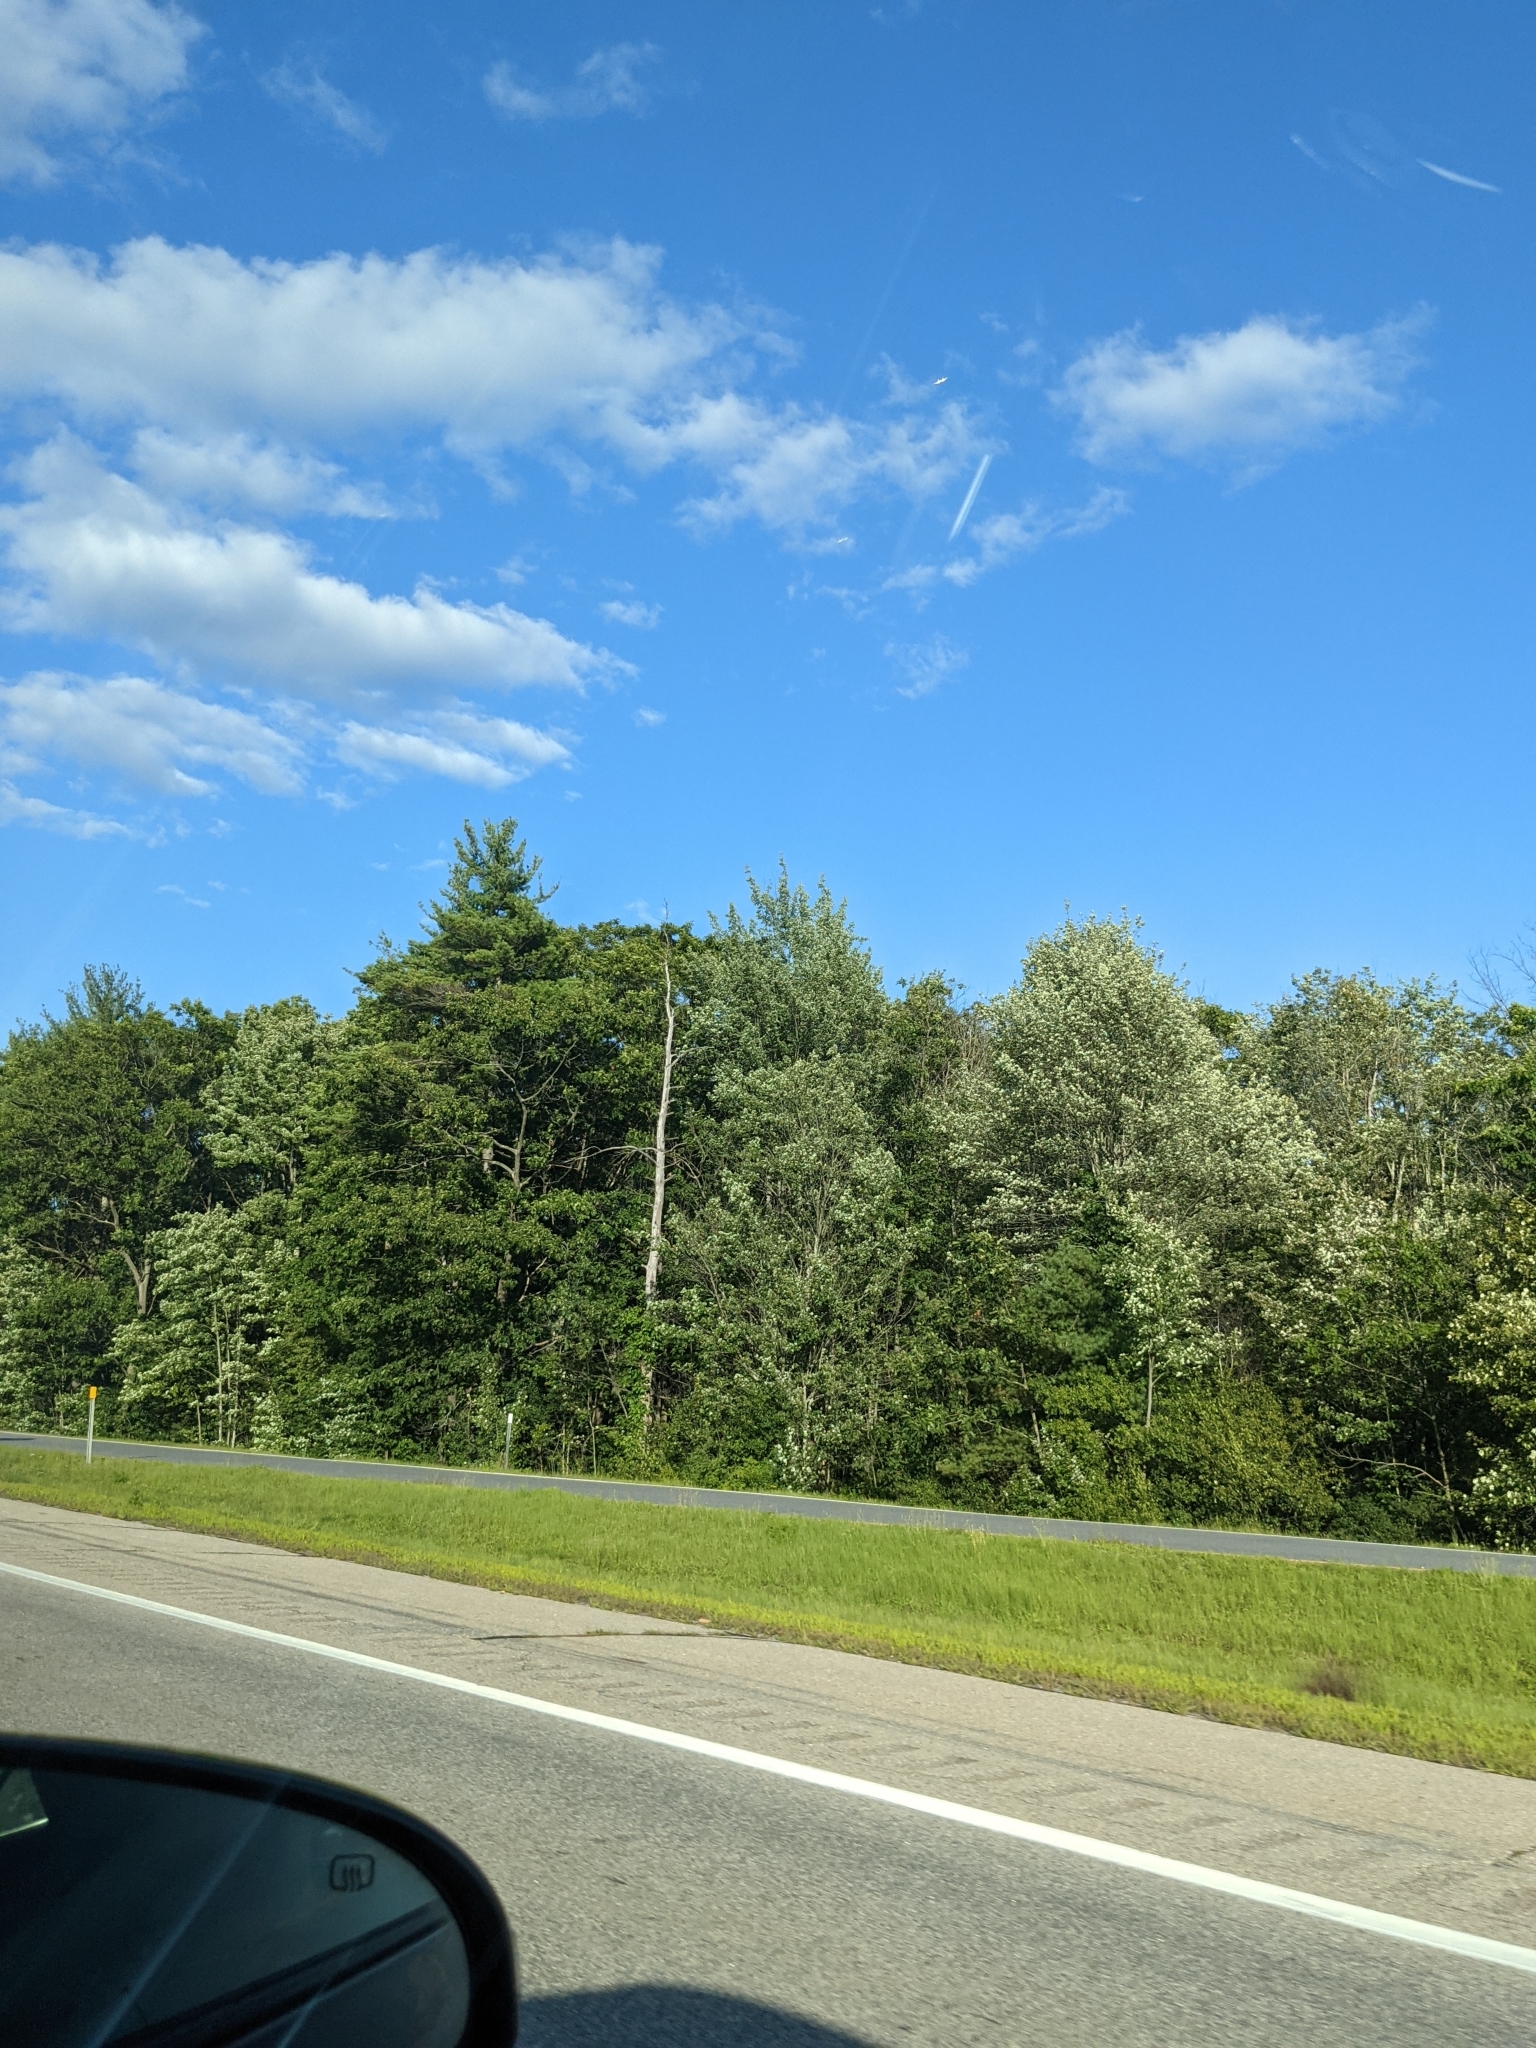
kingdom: Plantae
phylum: Tracheophyta
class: Pinopsida
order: Pinales
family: Pinaceae
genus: Pinus
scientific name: Pinus strobus
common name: Weymouth pine
